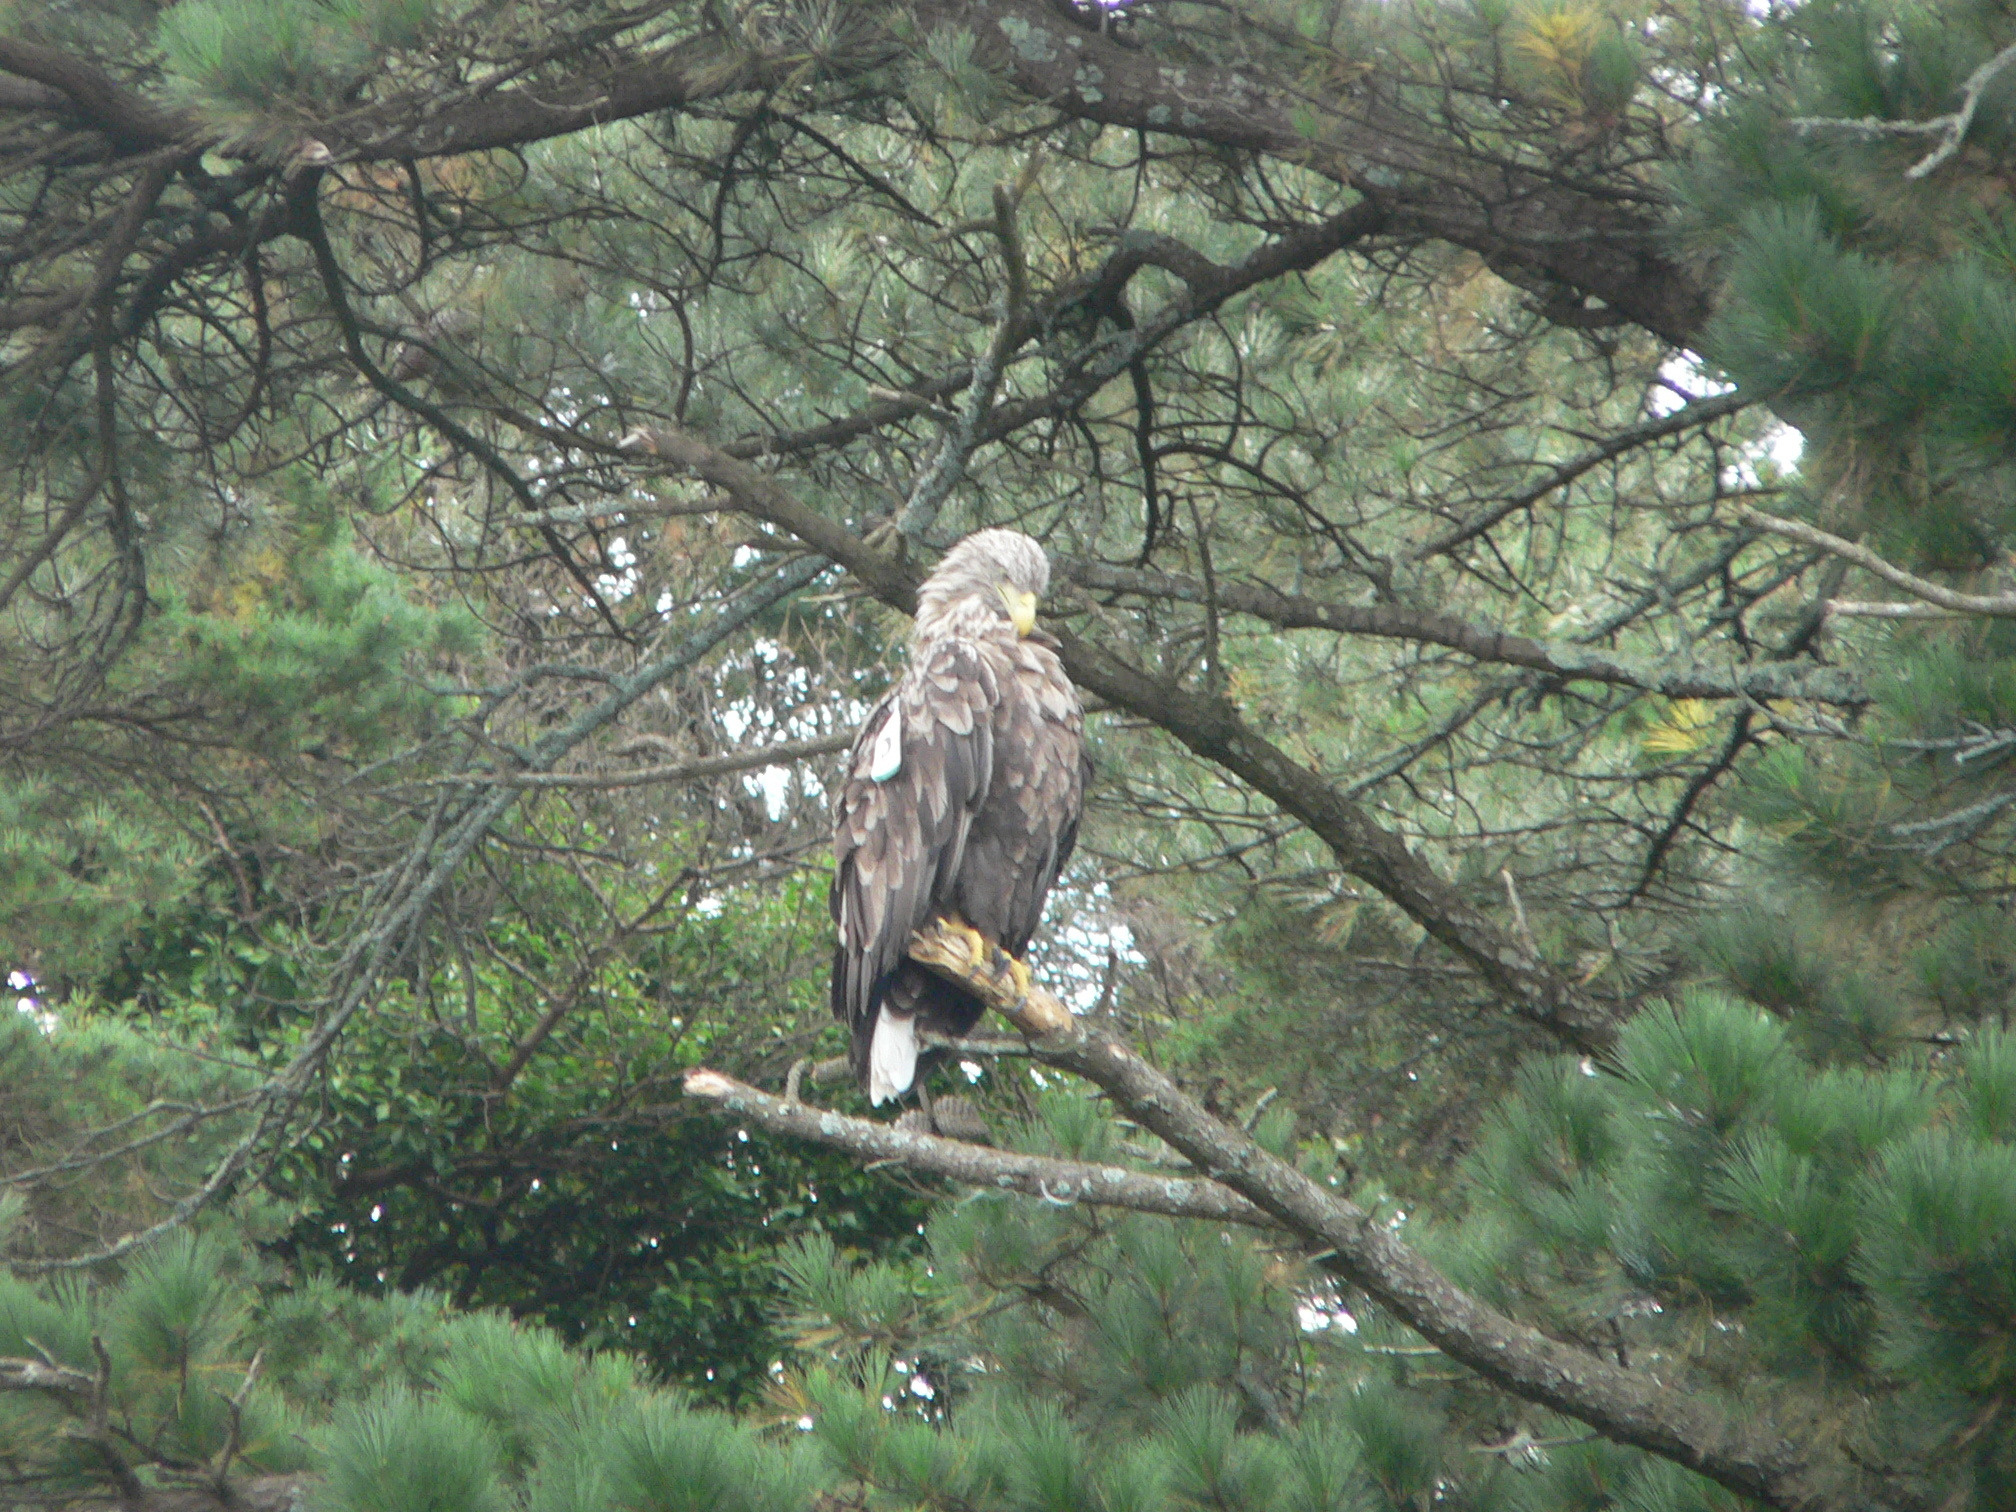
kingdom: Animalia
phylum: Chordata
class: Aves
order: Accipitriformes
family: Accipitridae
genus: Haliaeetus
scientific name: Haliaeetus albicilla
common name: White-tailed eagle
